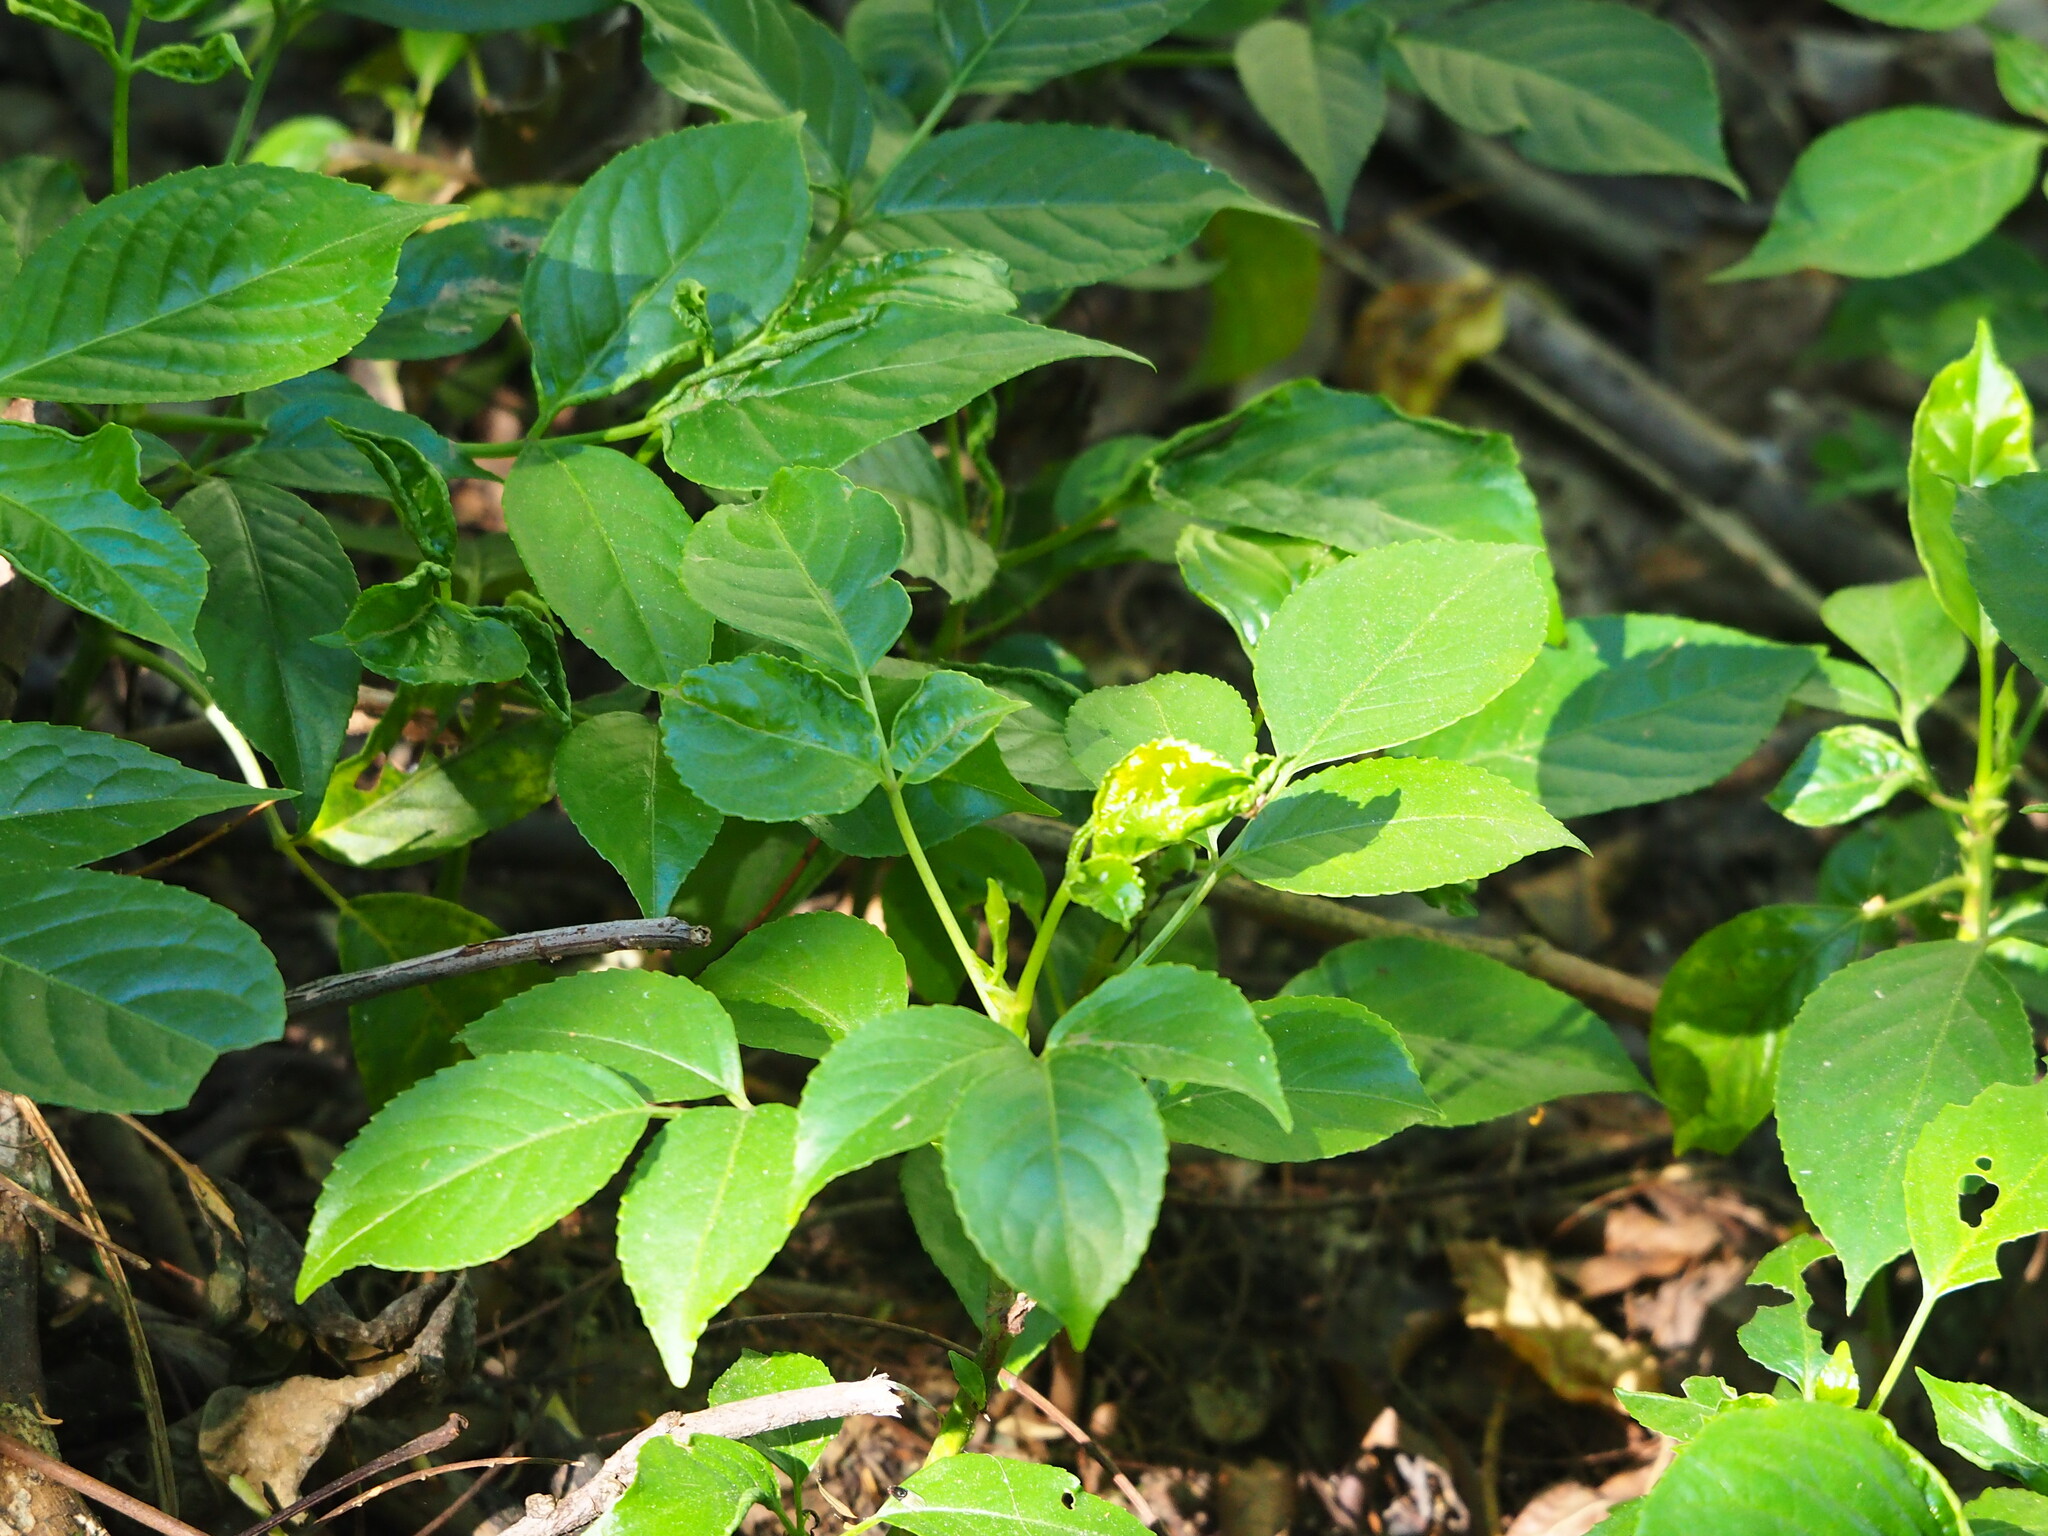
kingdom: Plantae
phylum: Tracheophyta
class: Magnoliopsida
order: Malpighiales
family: Phyllanthaceae
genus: Bischofia
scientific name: Bischofia javanica
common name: Javanese bishopwood
